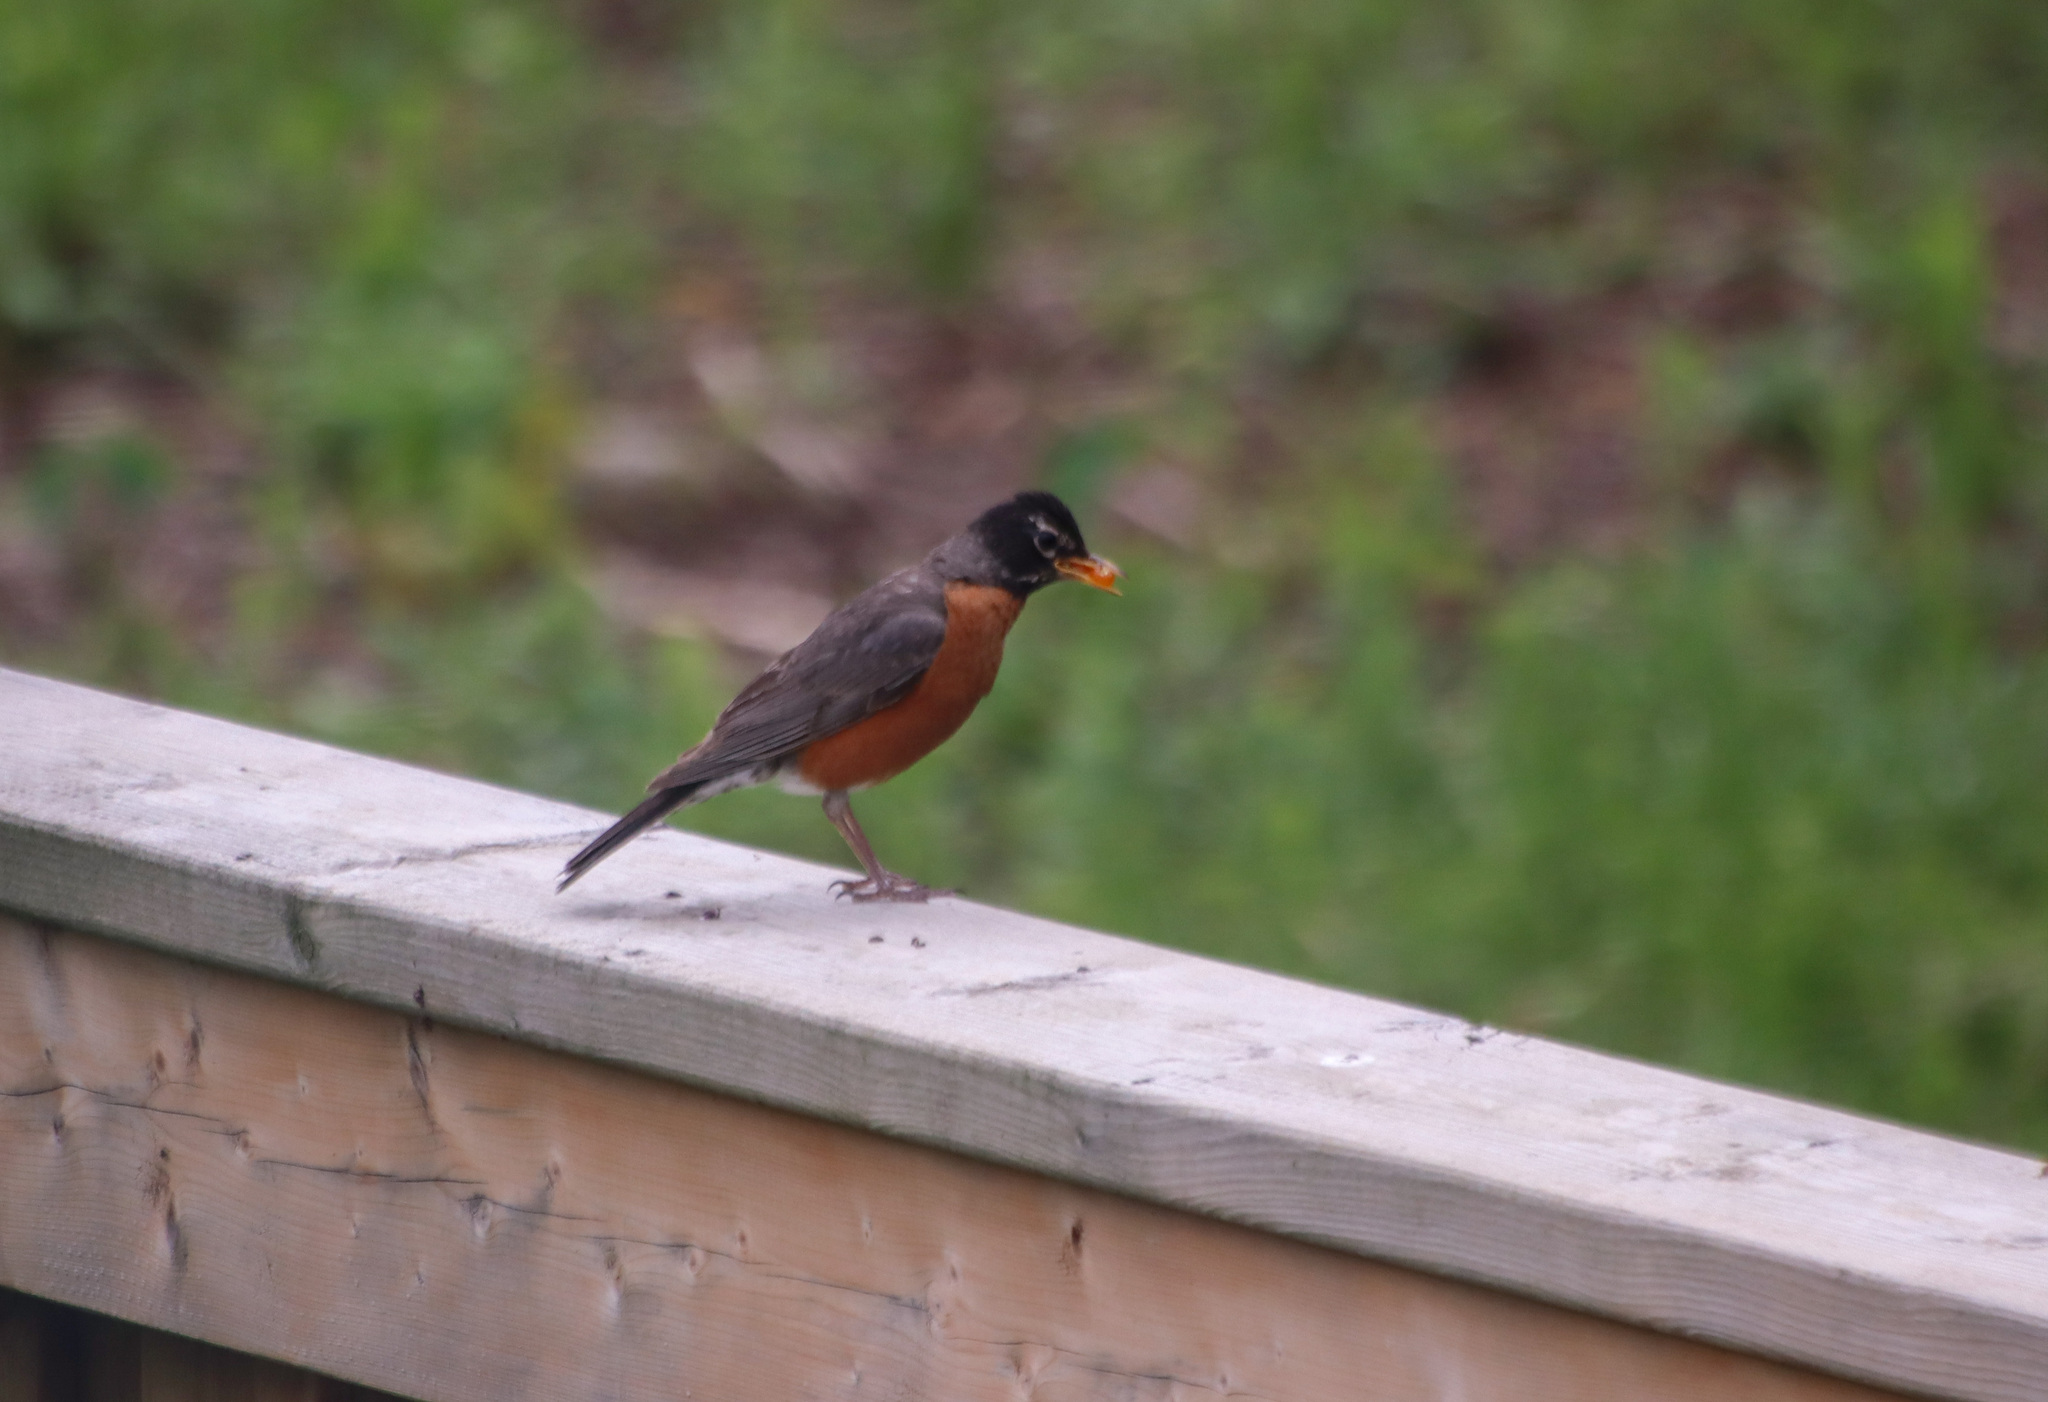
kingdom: Animalia
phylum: Chordata
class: Aves
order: Passeriformes
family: Turdidae
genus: Turdus
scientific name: Turdus migratorius
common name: American robin
